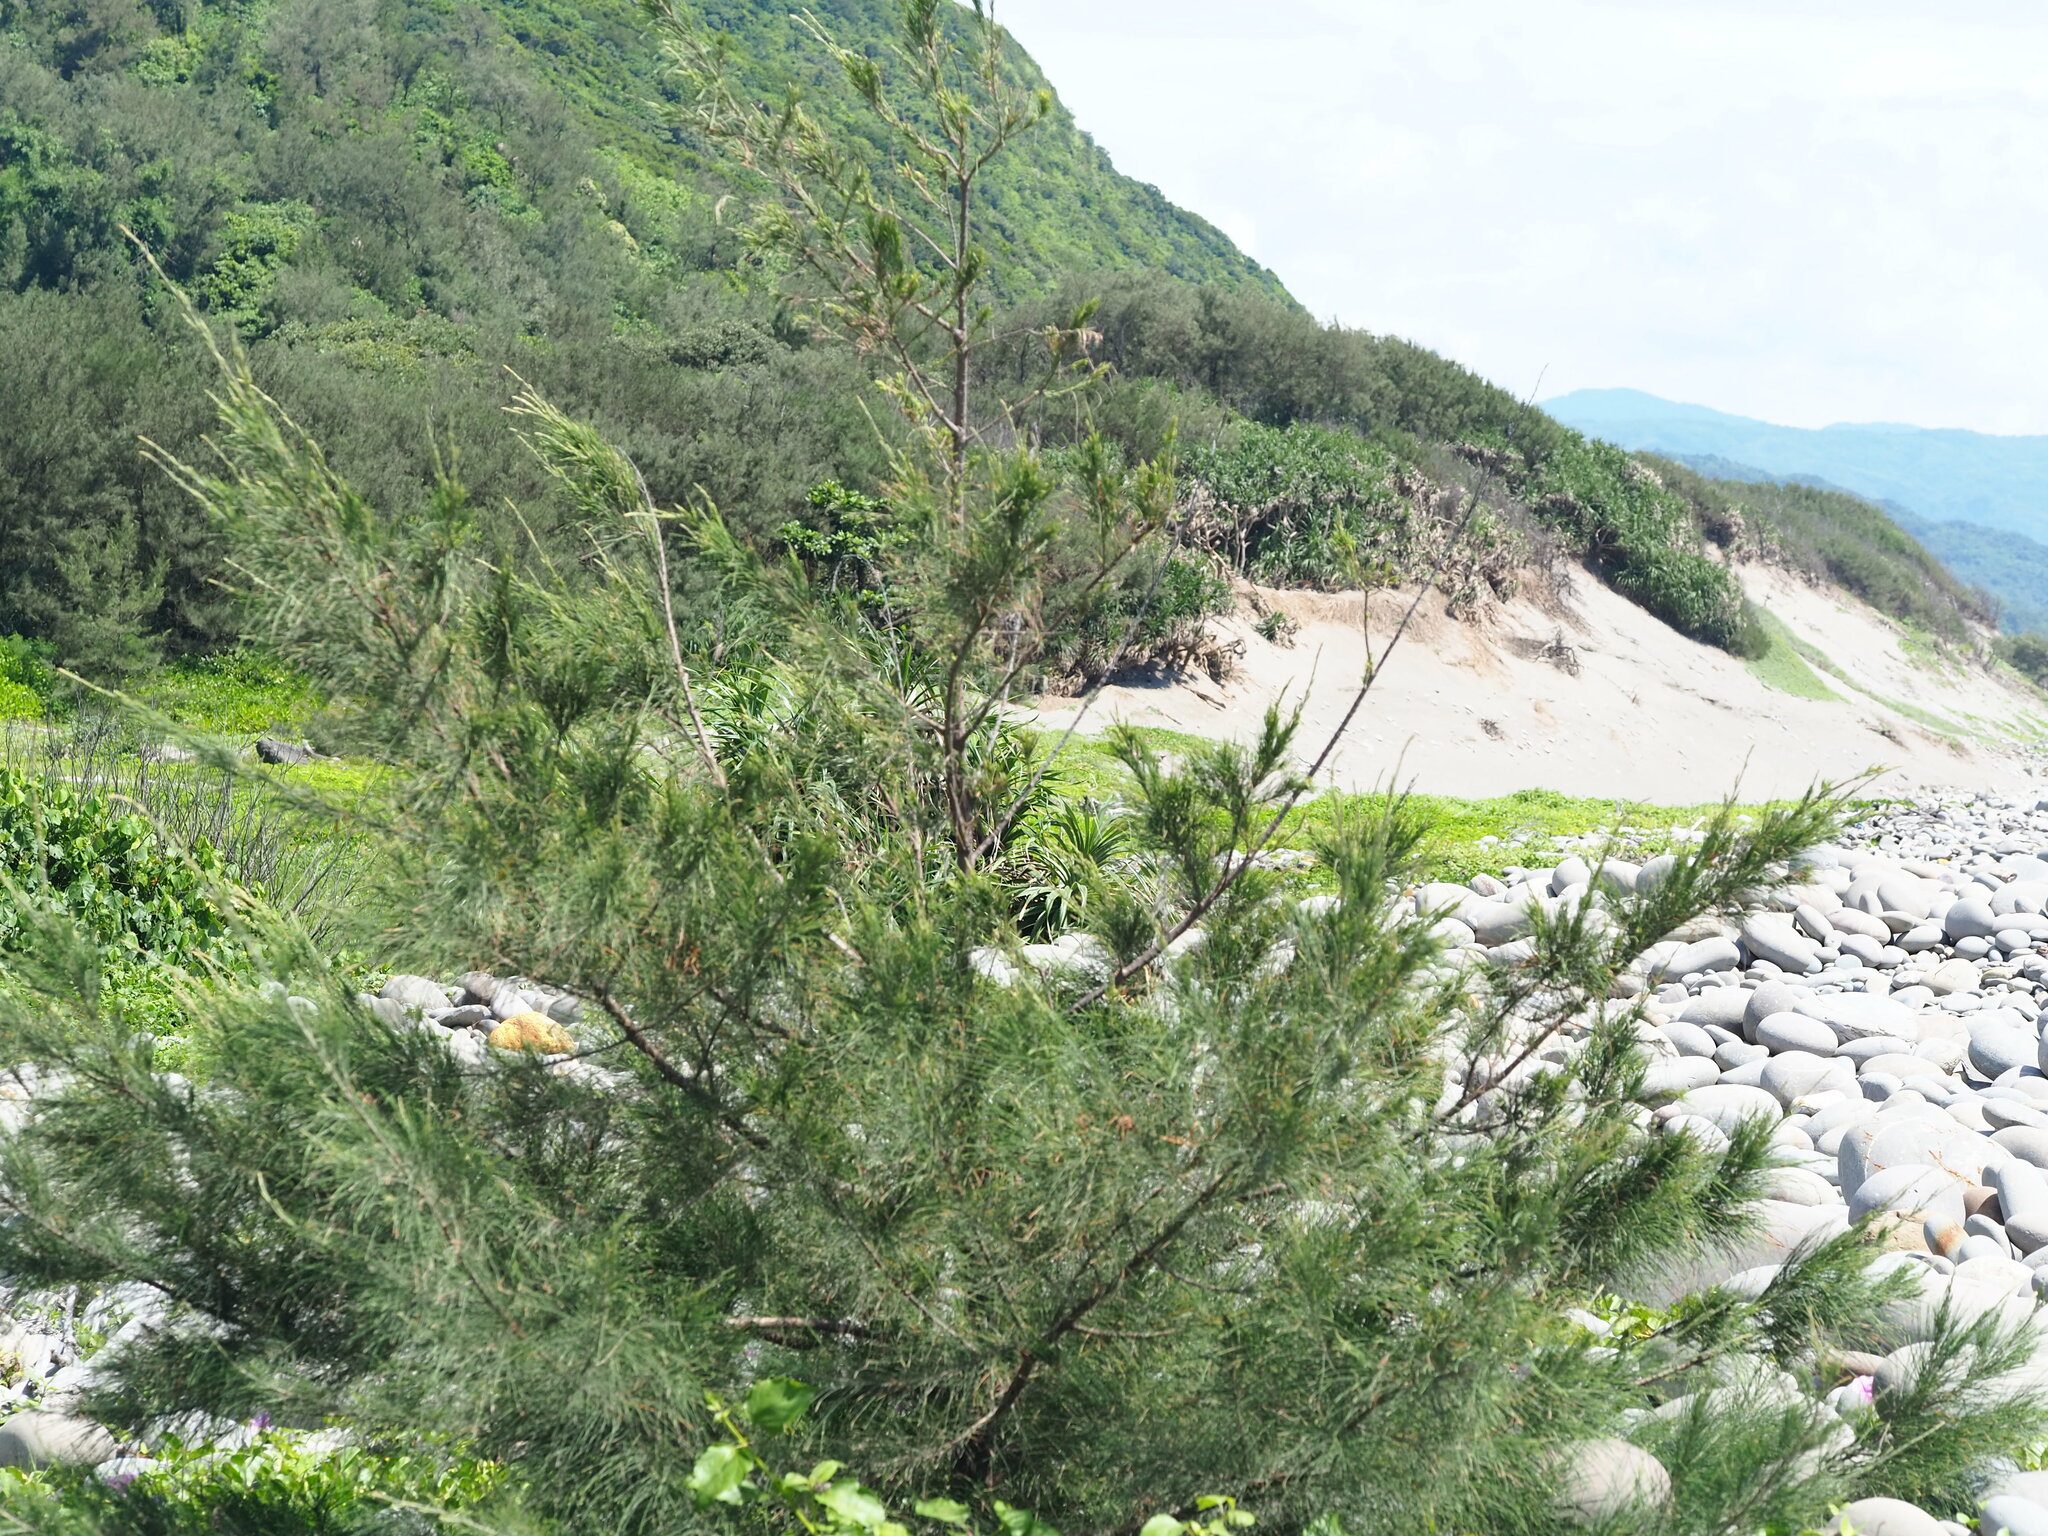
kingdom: Plantae
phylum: Tracheophyta
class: Magnoliopsida
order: Fagales
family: Casuarinaceae
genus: Casuarina
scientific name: Casuarina equisetifolia
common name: Beach sheoak
